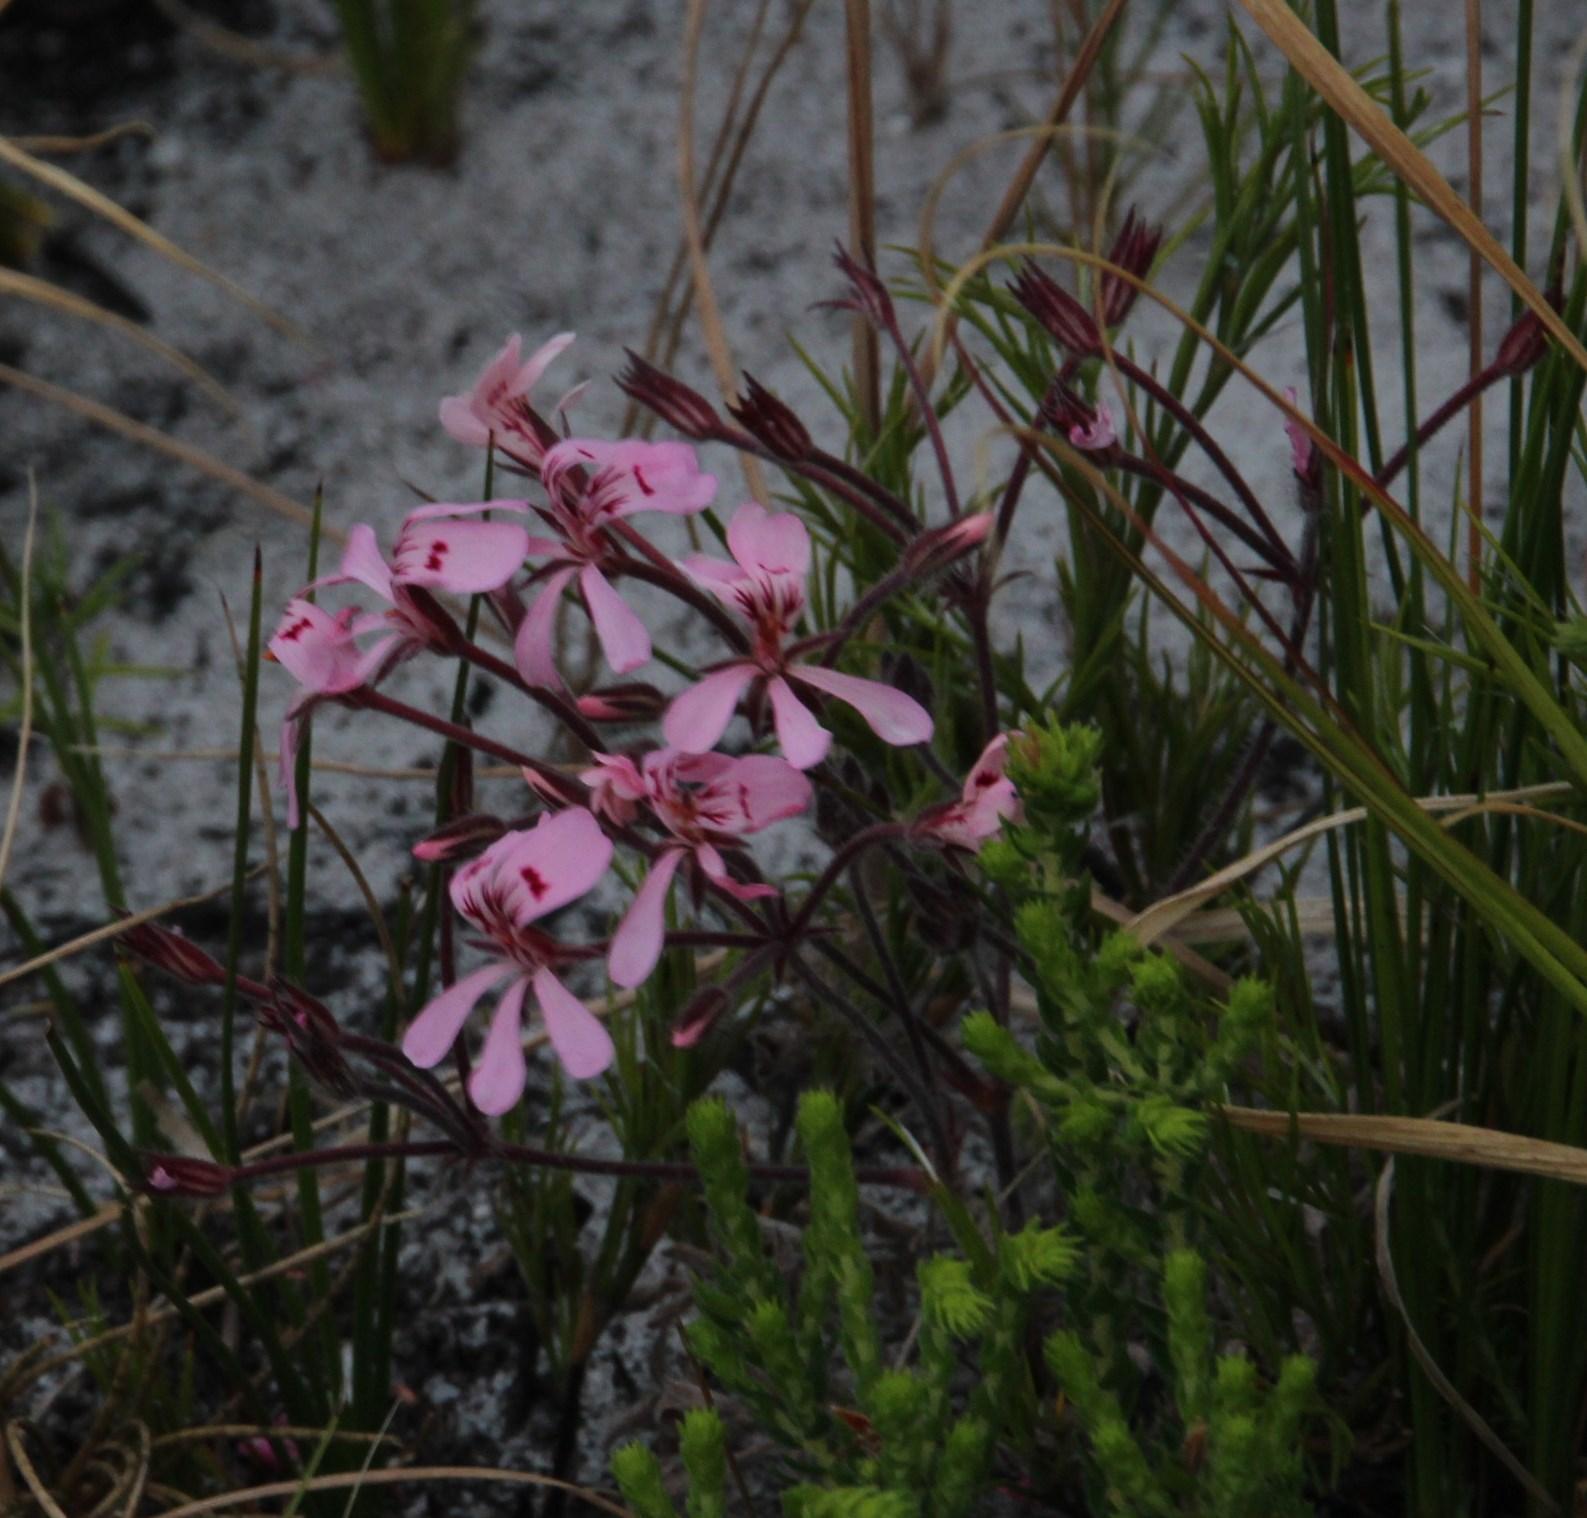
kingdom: Plantae
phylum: Tracheophyta
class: Magnoliopsida
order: Geraniales
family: Geraniaceae
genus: Pelargonium
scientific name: Pelargonium pinnatum
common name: Pinnated pelargonium
